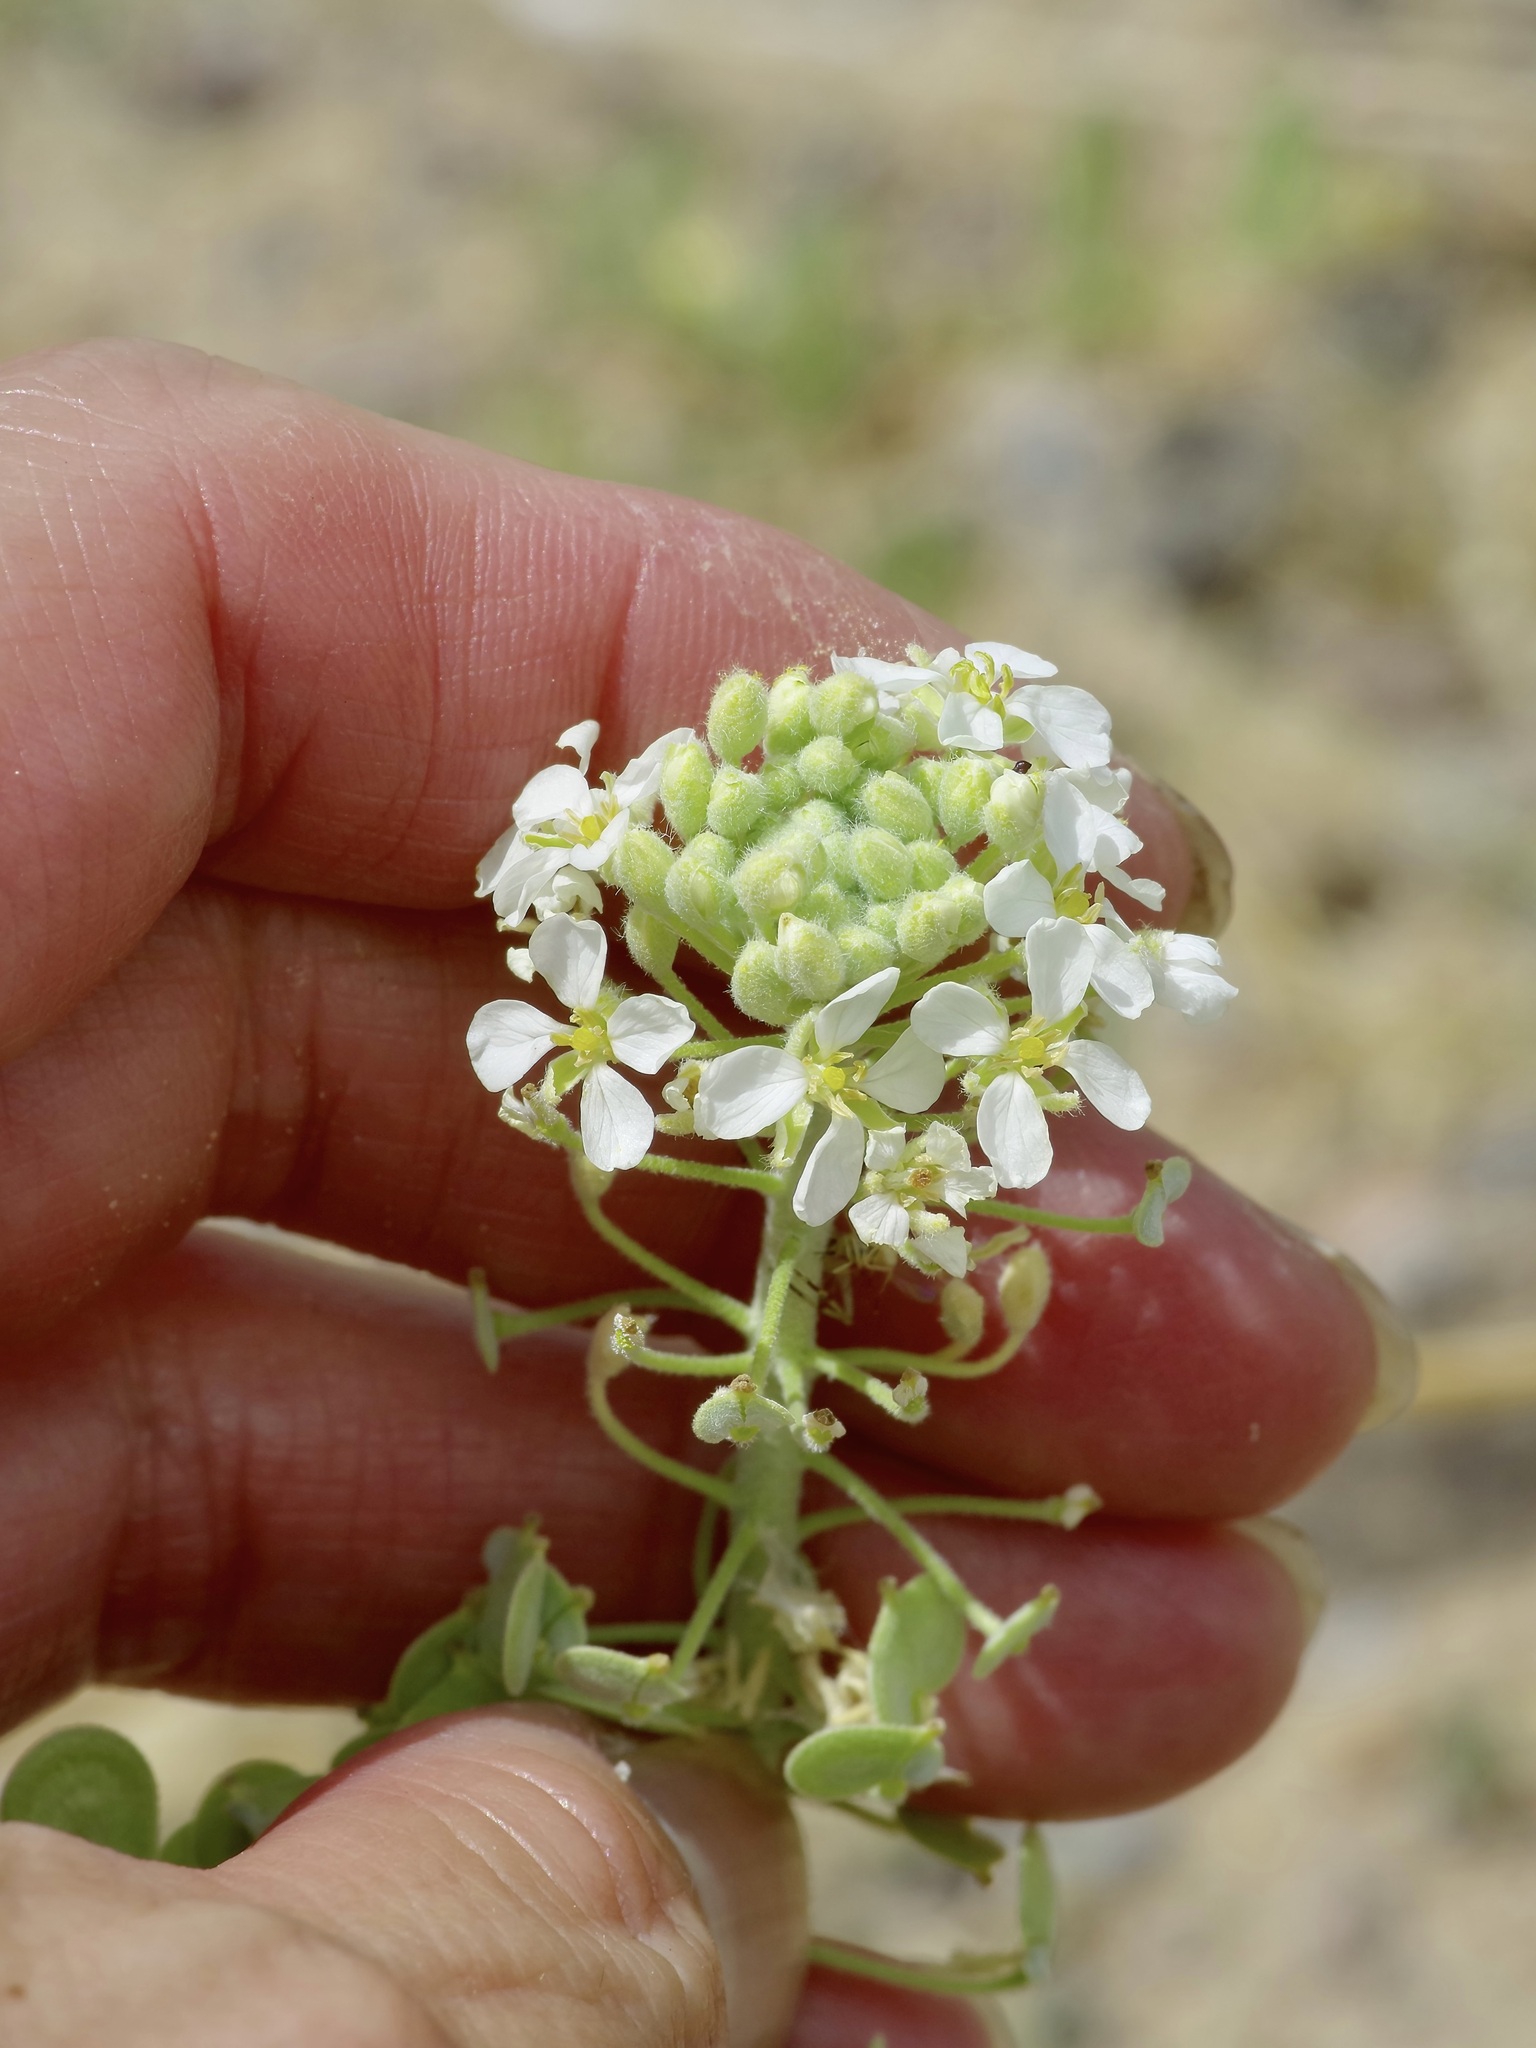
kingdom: Plantae
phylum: Tracheophyta
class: Magnoliopsida
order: Brassicales
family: Brassicaceae
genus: Dimorphocarpa
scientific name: Dimorphocarpa wislizenii
